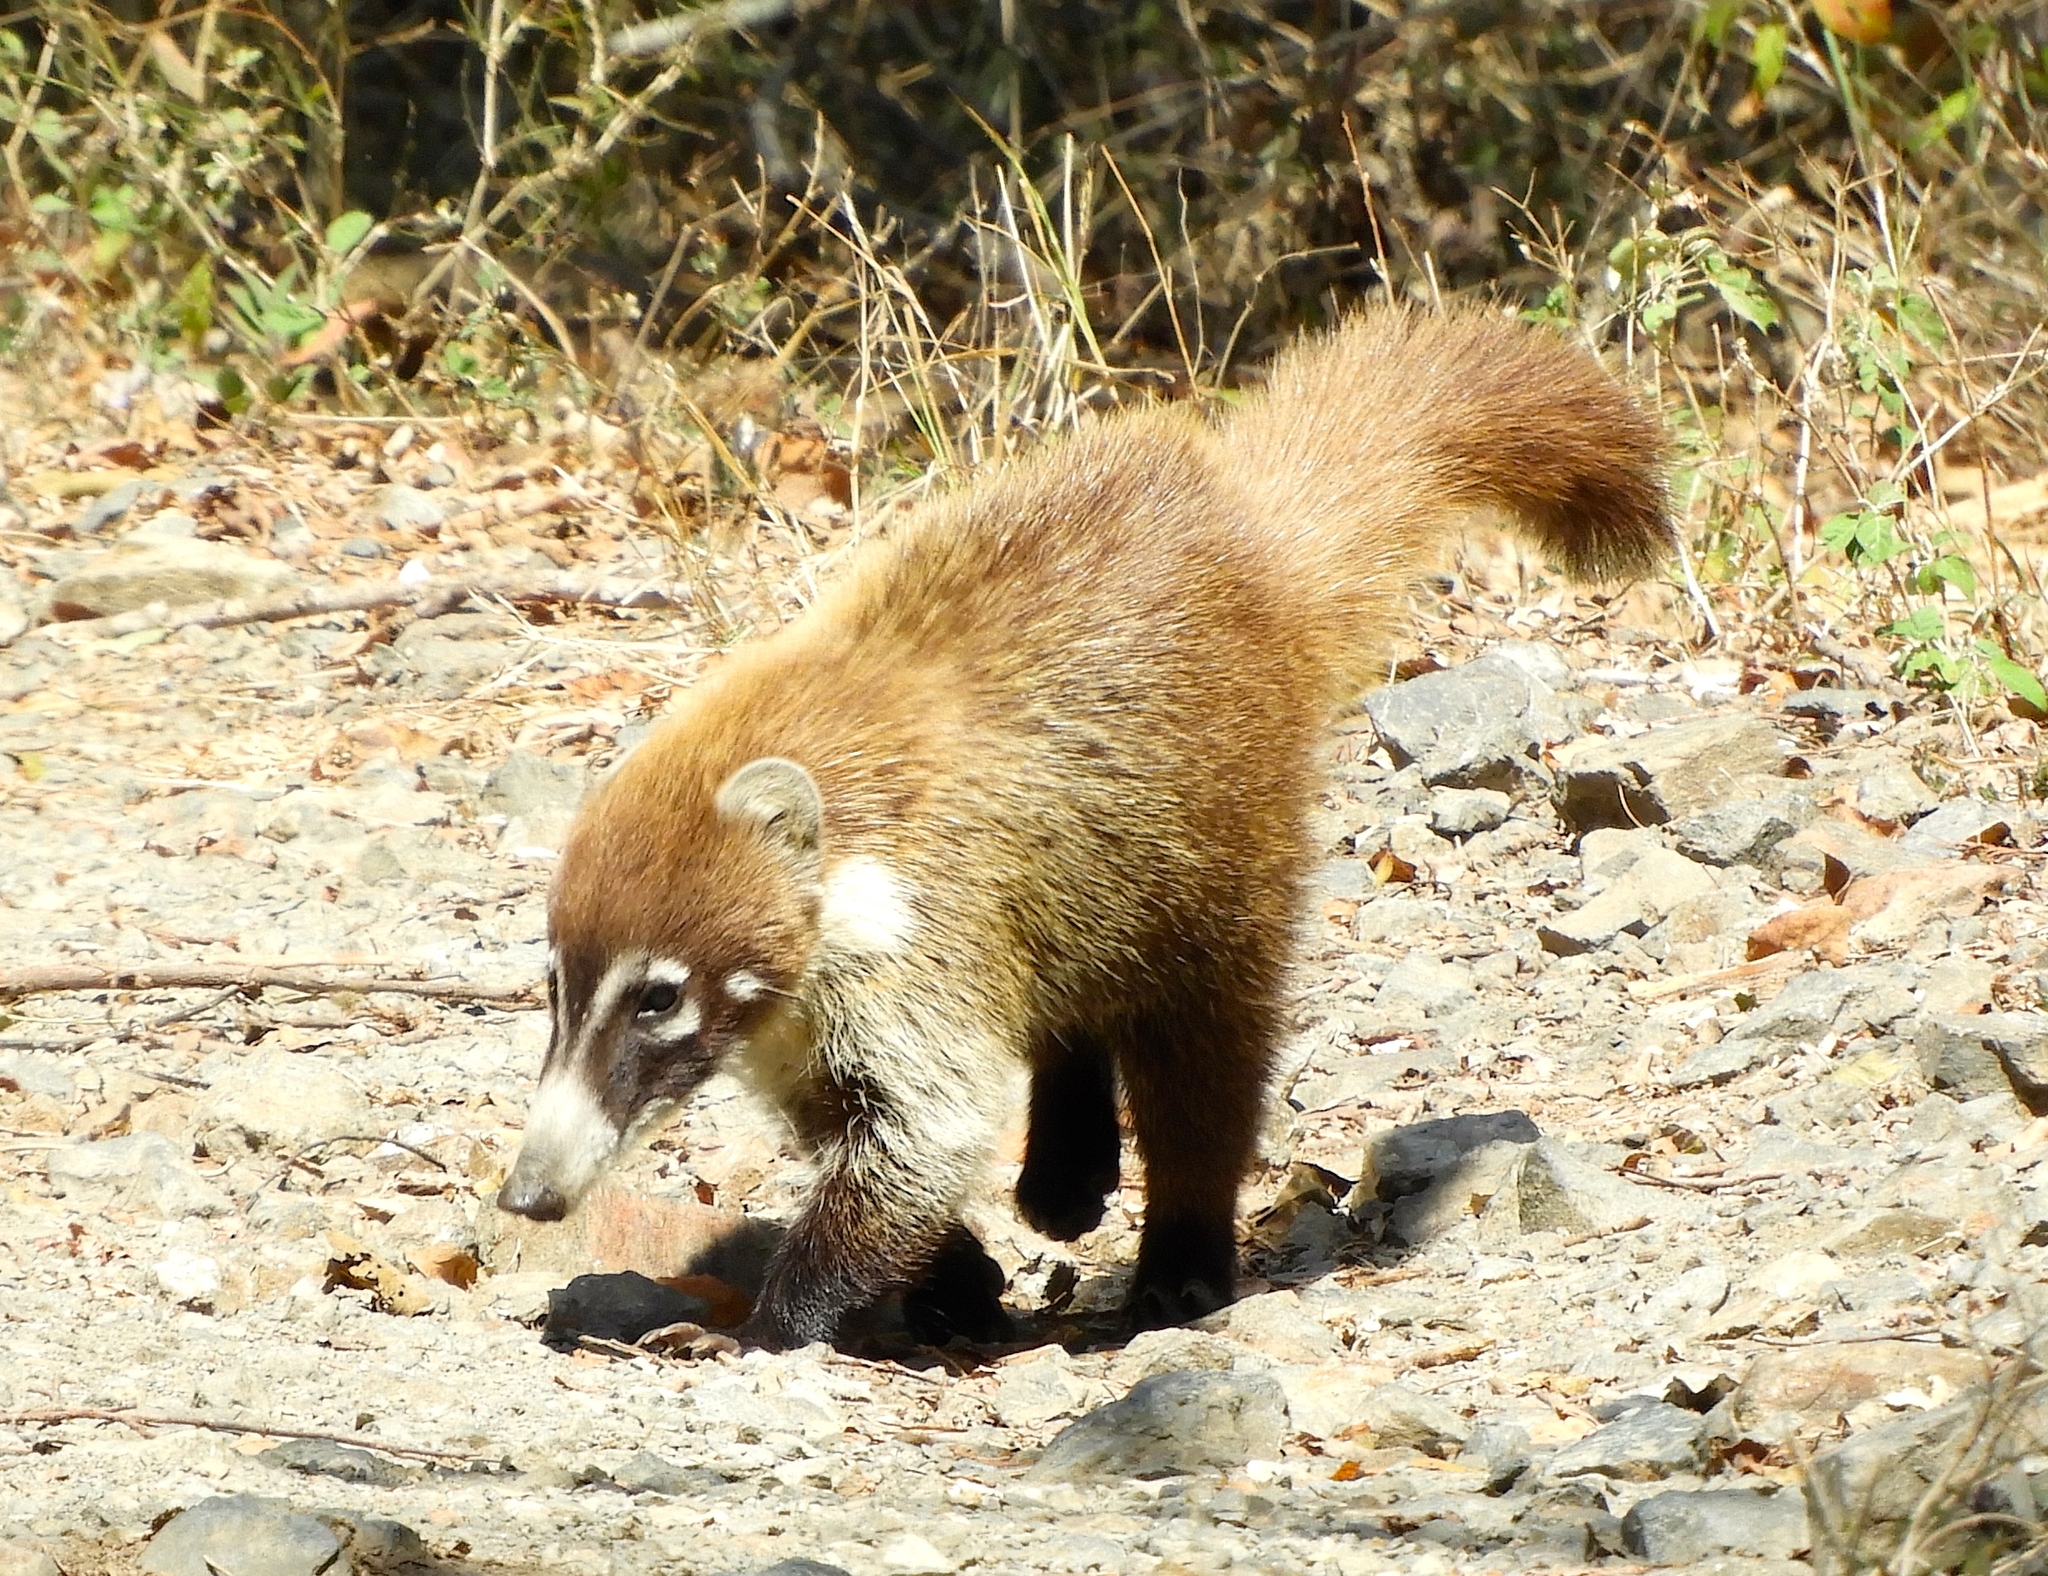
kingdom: Animalia
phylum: Chordata
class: Mammalia
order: Carnivora
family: Procyonidae
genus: Nasua
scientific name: Nasua narica
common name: White-nosed coati
